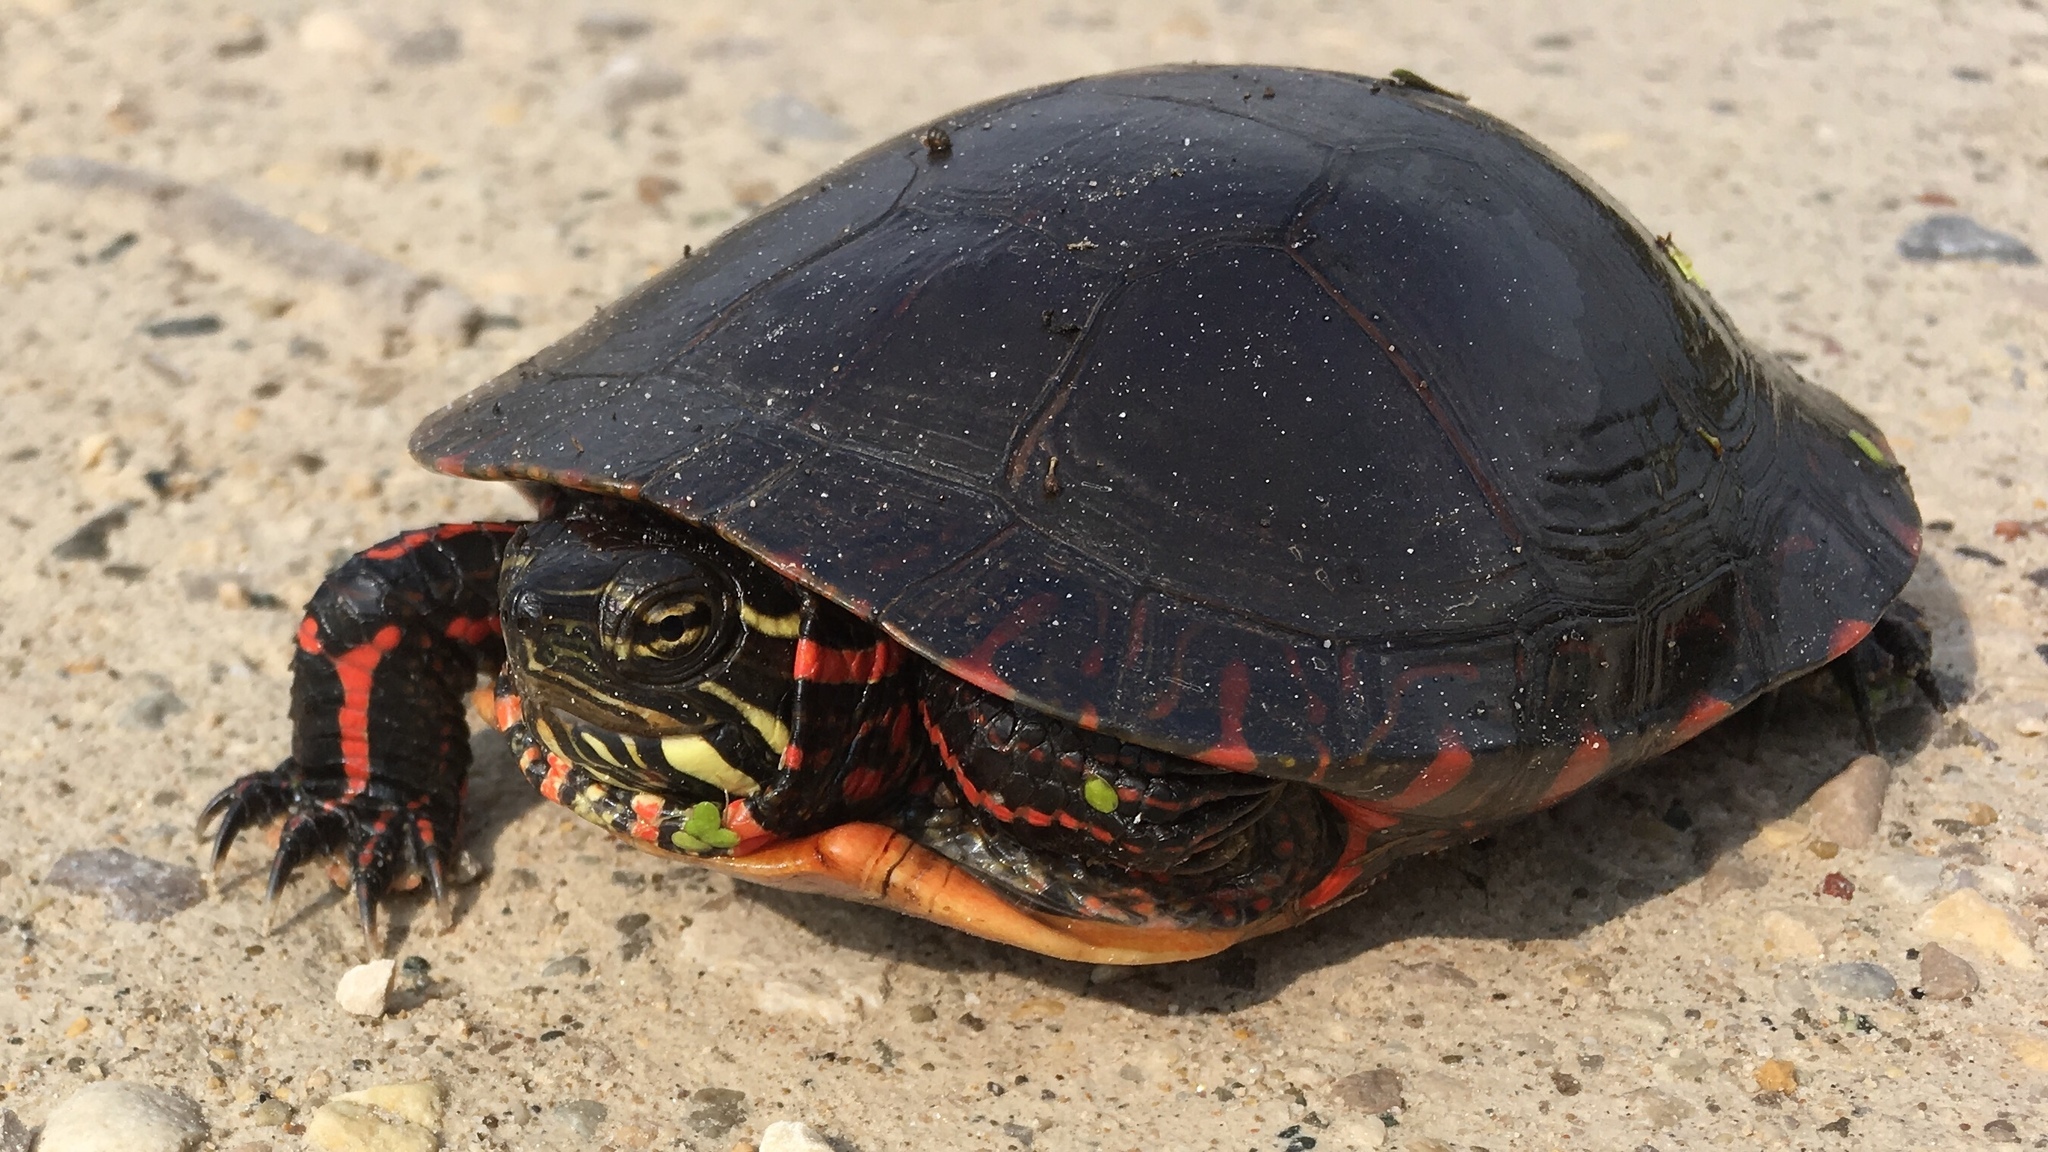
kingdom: Animalia
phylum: Chordata
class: Testudines
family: Emydidae
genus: Chrysemys
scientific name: Chrysemys picta
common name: Painted turtle
